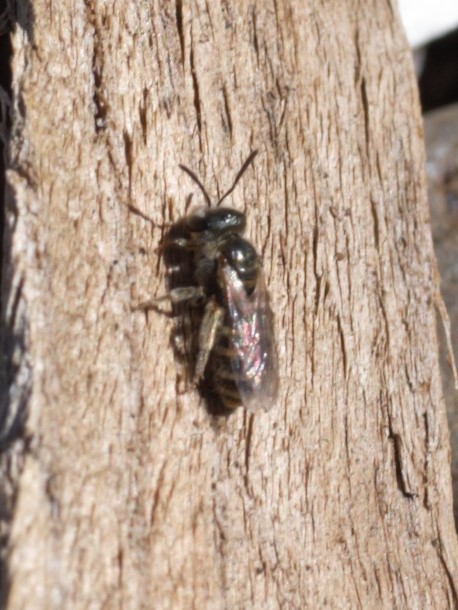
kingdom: Animalia
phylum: Arthropoda
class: Insecta
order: Hymenoptera
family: Halictidae
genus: Halictus
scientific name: Halictus tripartitus
